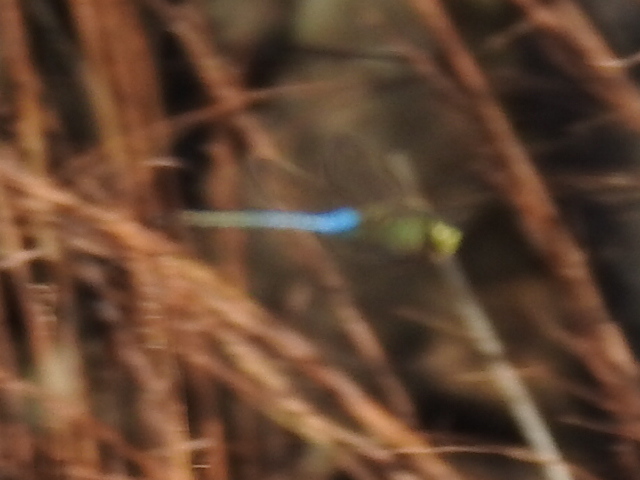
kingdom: Animalia
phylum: Arthropoda
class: Insecta
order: Odonata
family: Aeshnidae
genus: Anax
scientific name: Anax junius
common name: Common green darner
